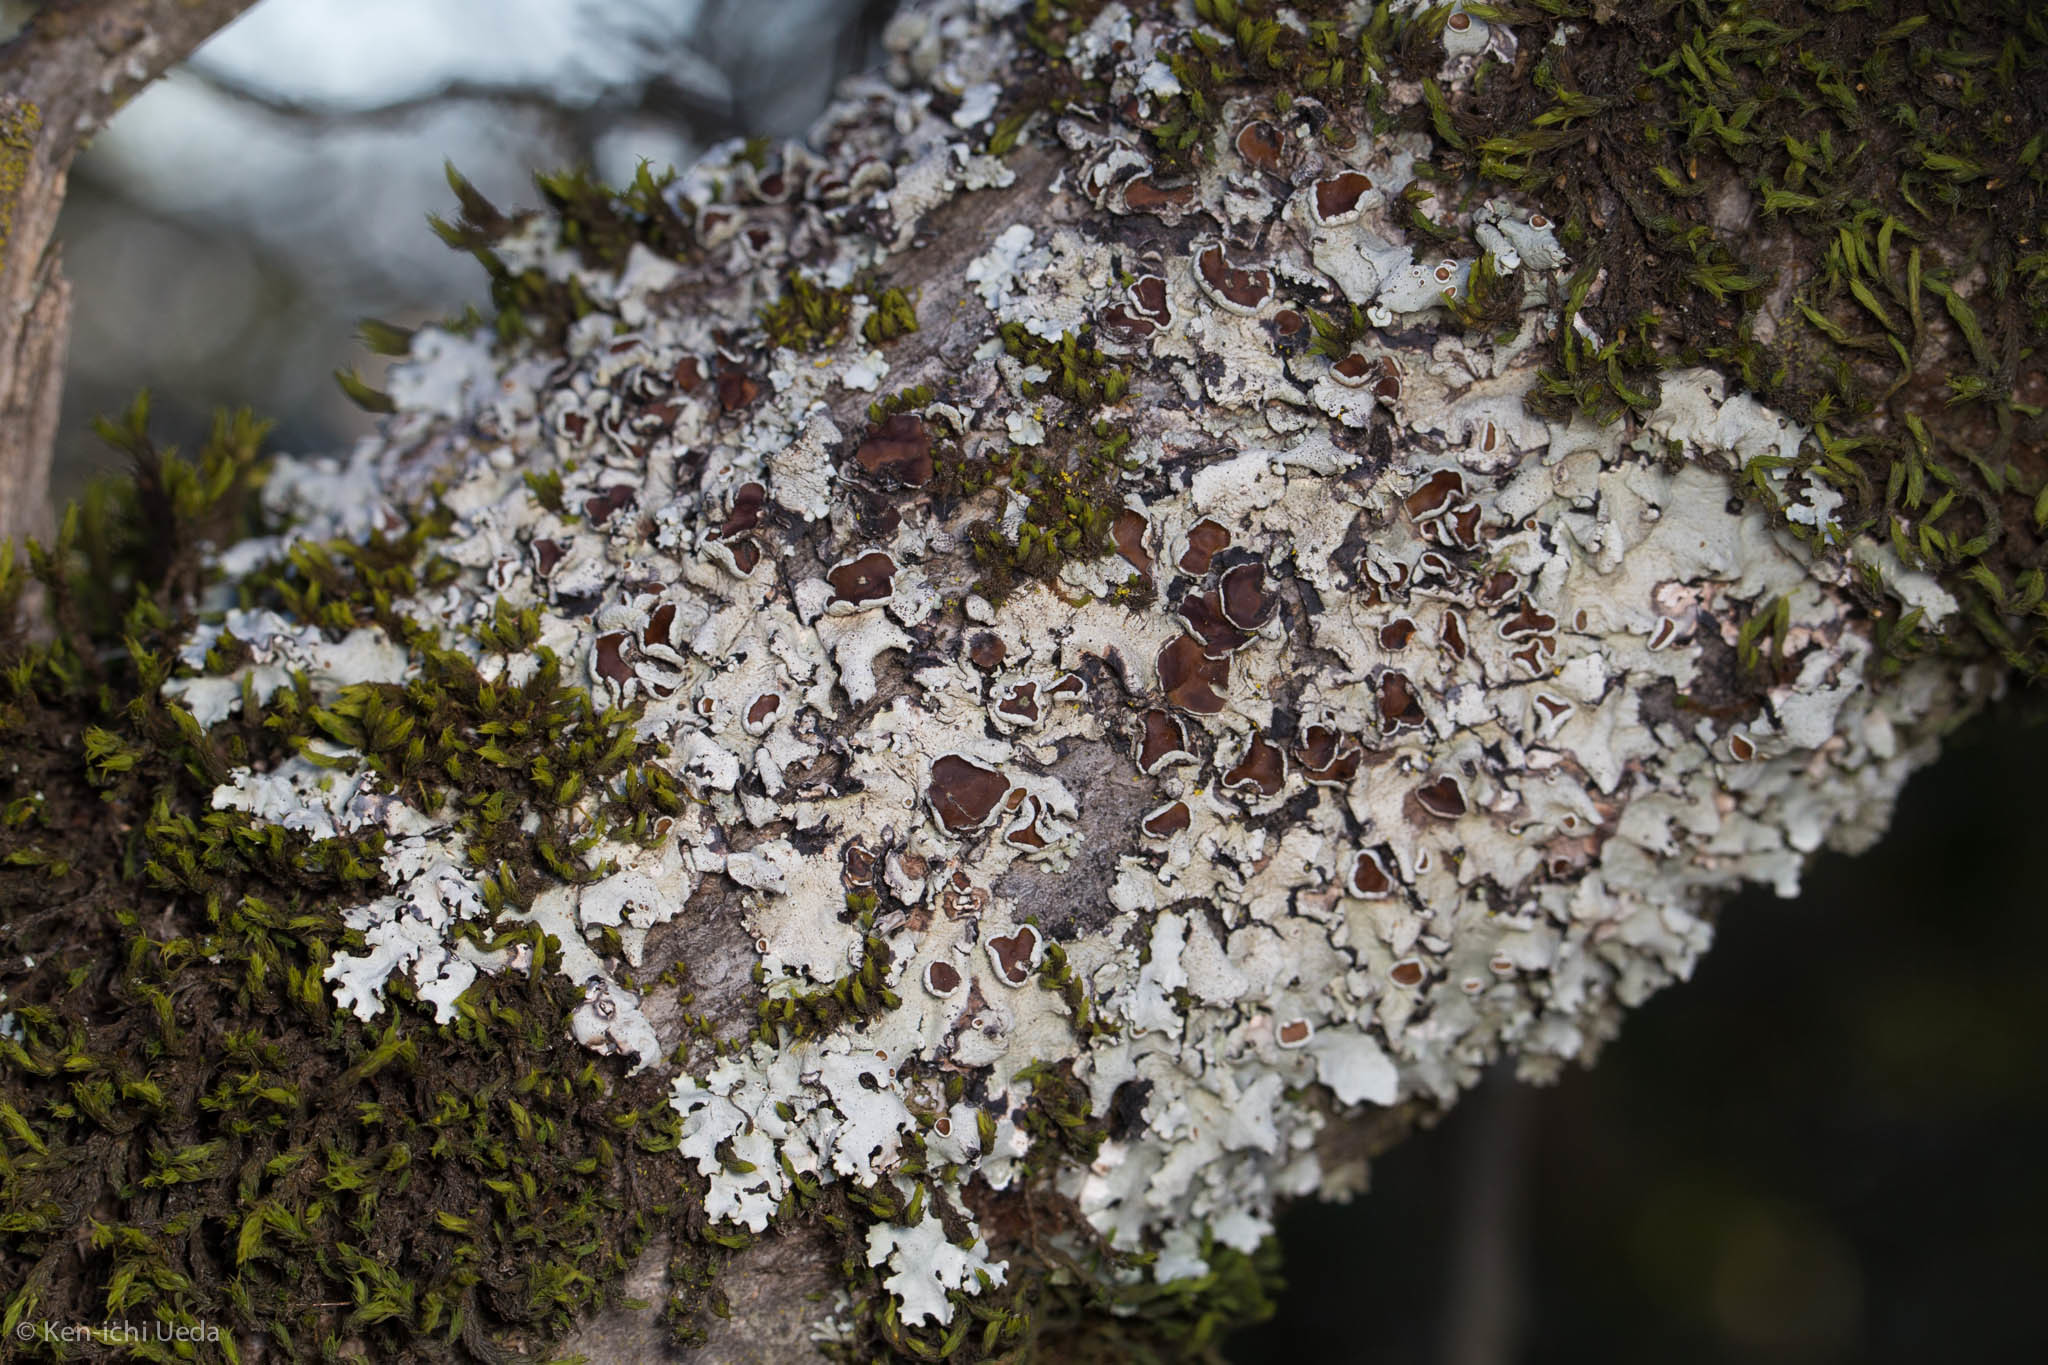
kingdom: Fungi
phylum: Ascomycota
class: Lecanoromycetes
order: Lecanorales
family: Parmeliaceae
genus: Parmelina
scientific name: Parmelina coleae
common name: Fringed shield lichen
